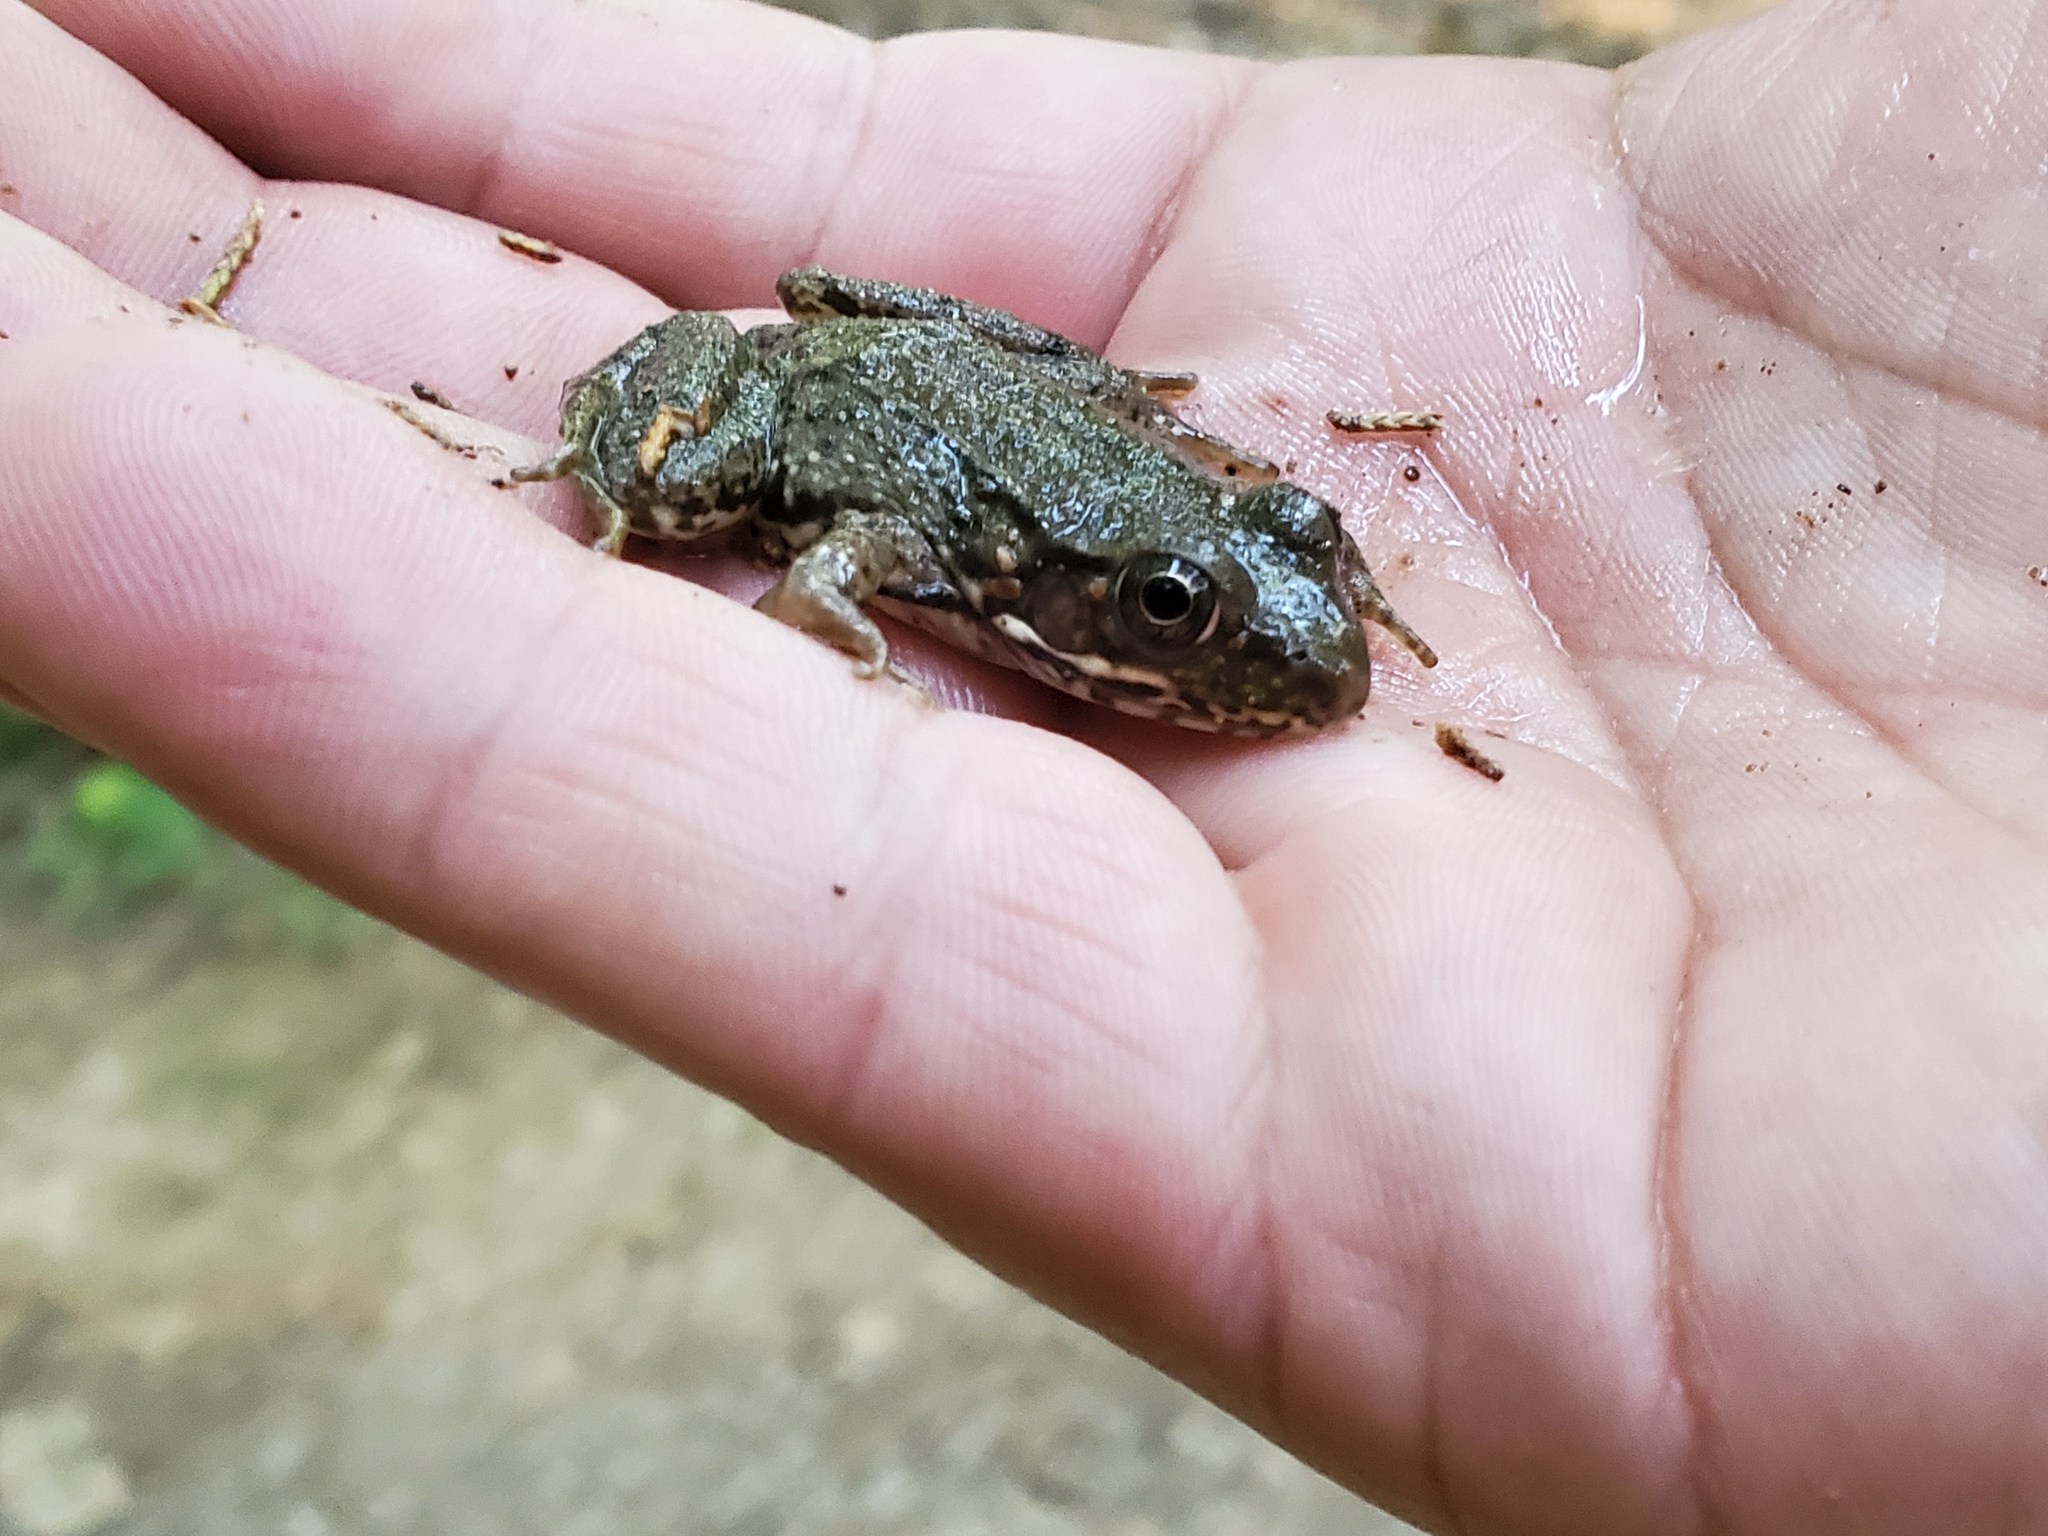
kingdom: Animalia
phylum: Chordata
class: Amphibia
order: Anura
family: Ranidae
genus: Lithobates
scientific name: Lithobates clamitans
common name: Green frog
